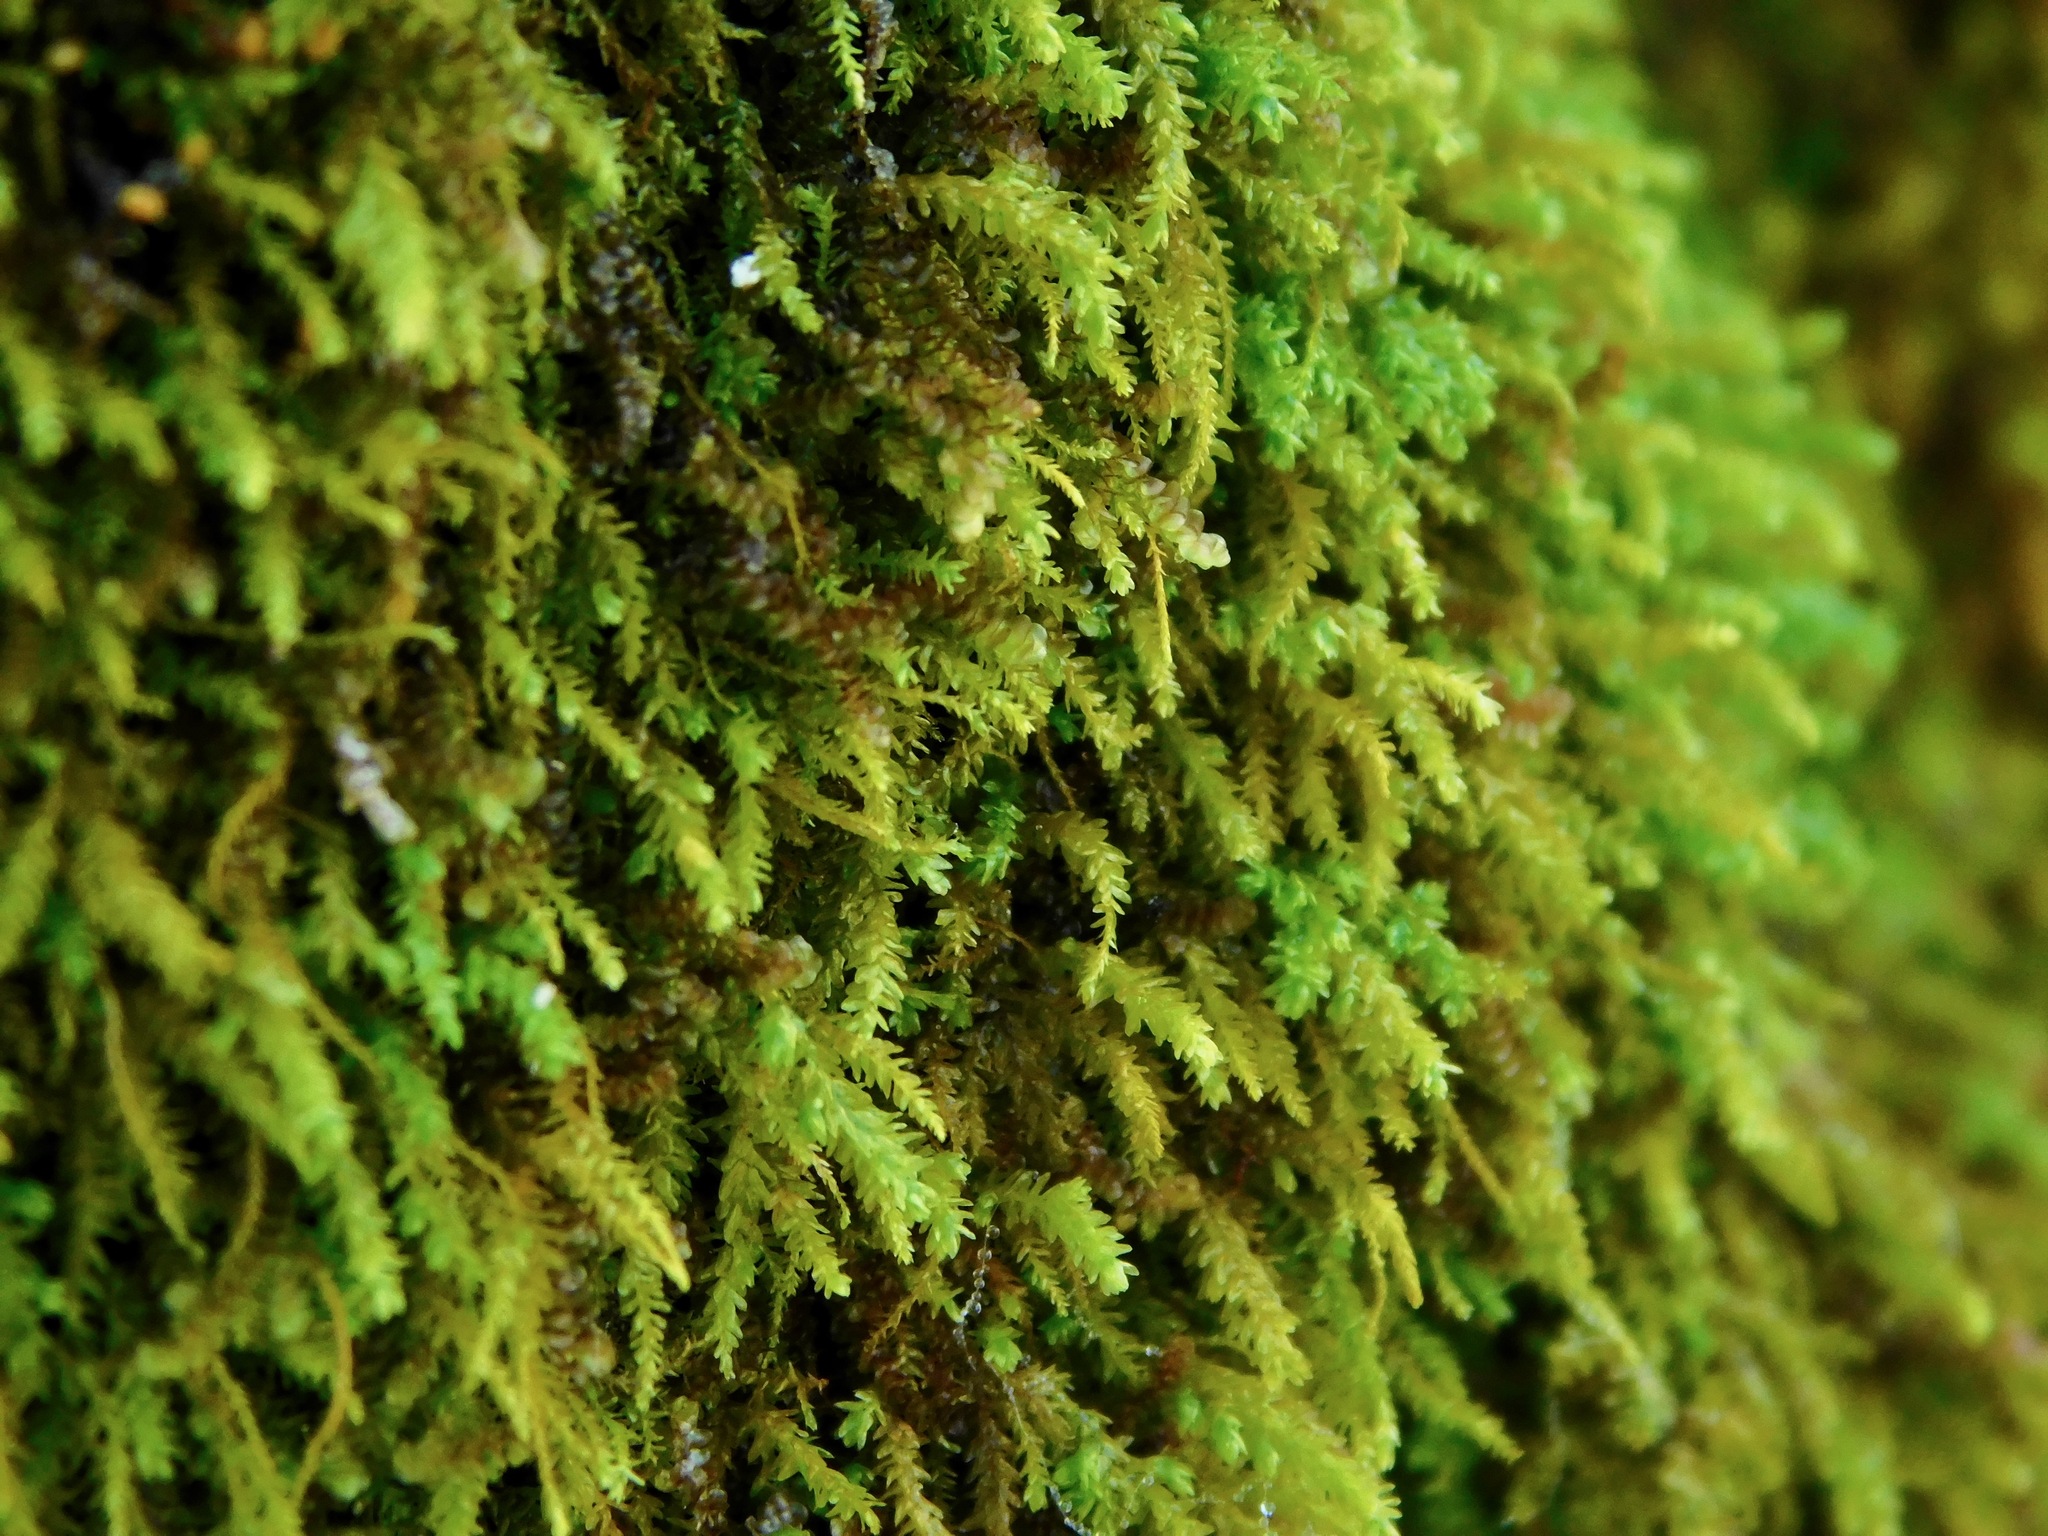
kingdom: Plantae
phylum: Bryophyta
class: Bryopsida
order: Hypnales
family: Neckeraceae
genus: Pseudanomodon
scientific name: Pseudanomodon attenuatus
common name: Tree-skirt moss
